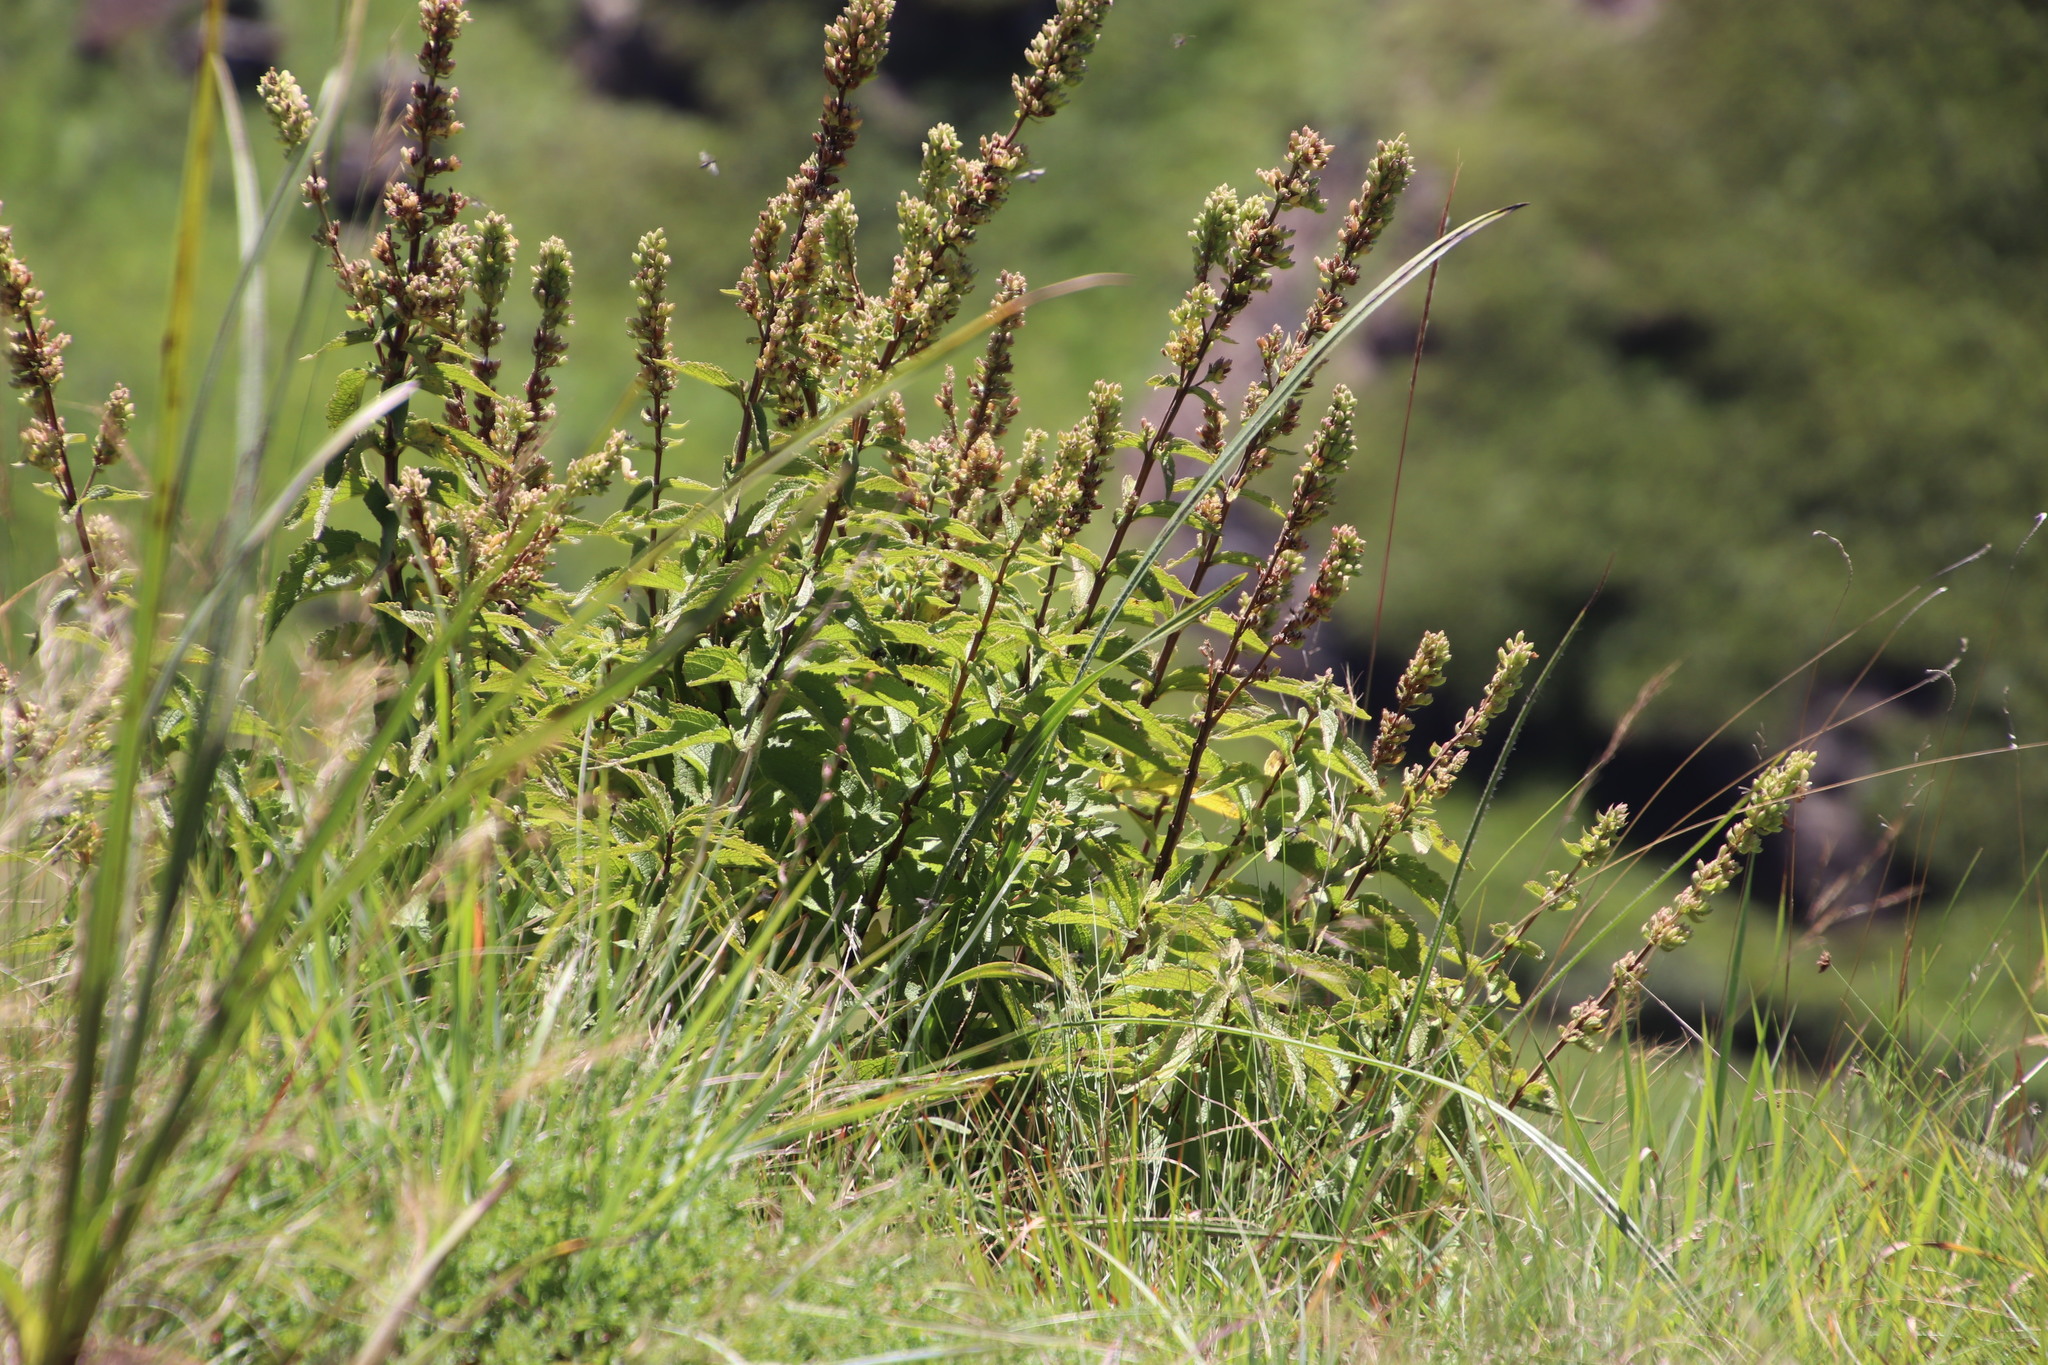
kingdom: Plantae
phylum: Tracheophyta
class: Magnoliopsida
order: Lamiales
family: Lamiaceae
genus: Coleus
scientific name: Coleus calycinus
